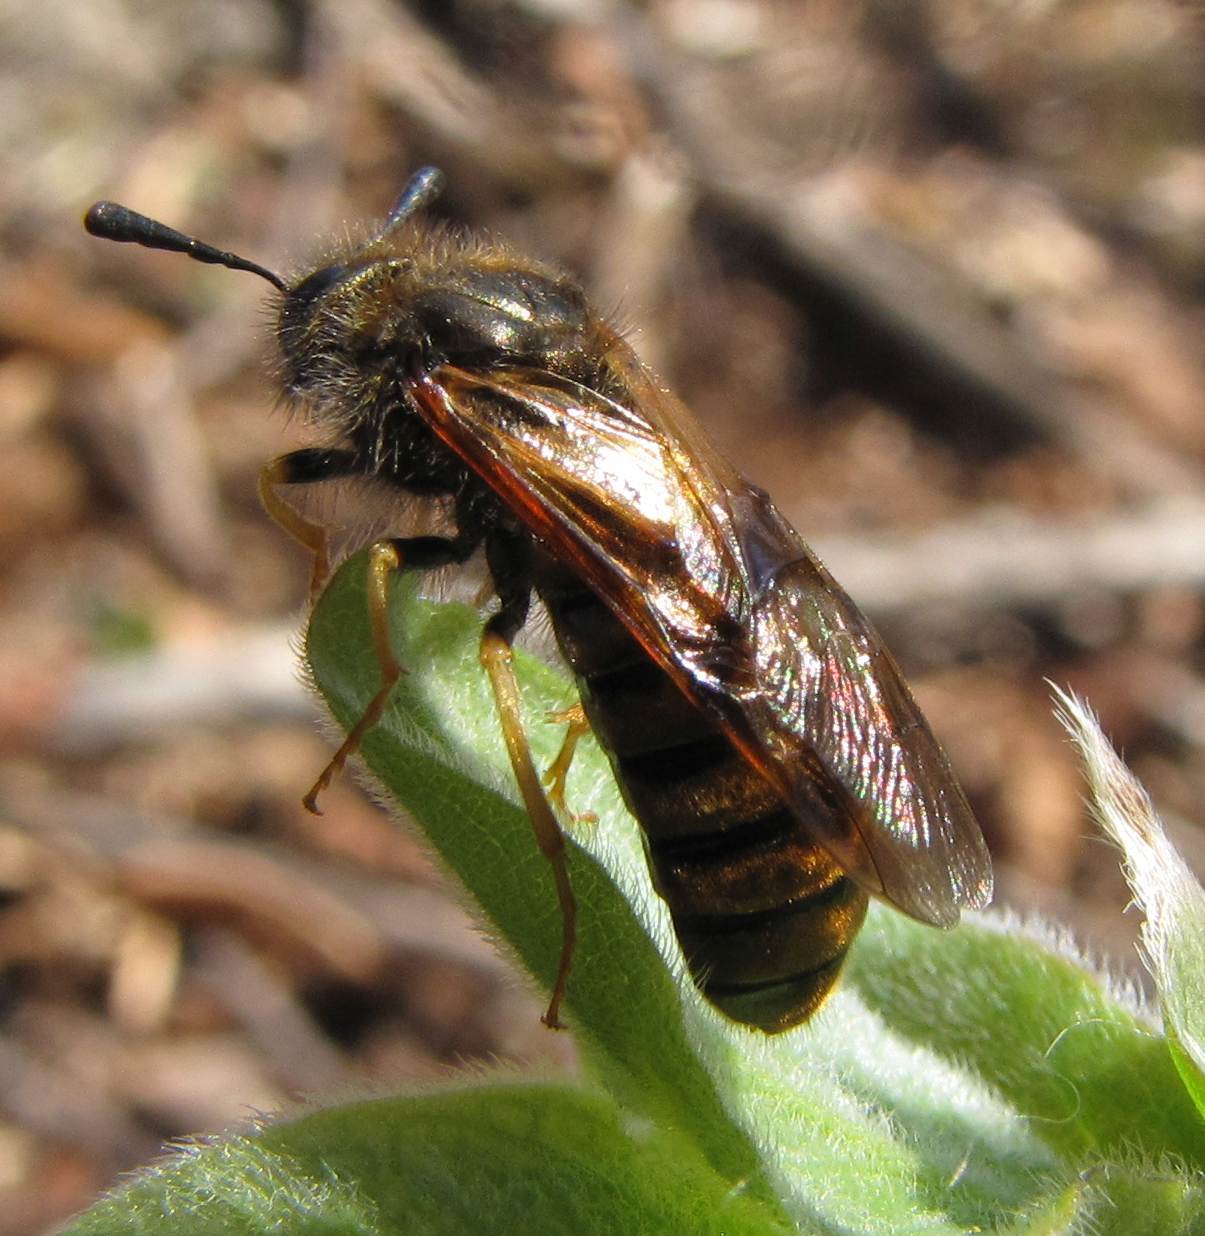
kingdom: Animalia
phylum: Arthropoda
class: Insecta
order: Hymenoptera
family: Cimbicidae
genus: Abia
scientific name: Abia lonicerae
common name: Cimbicid sawfly
